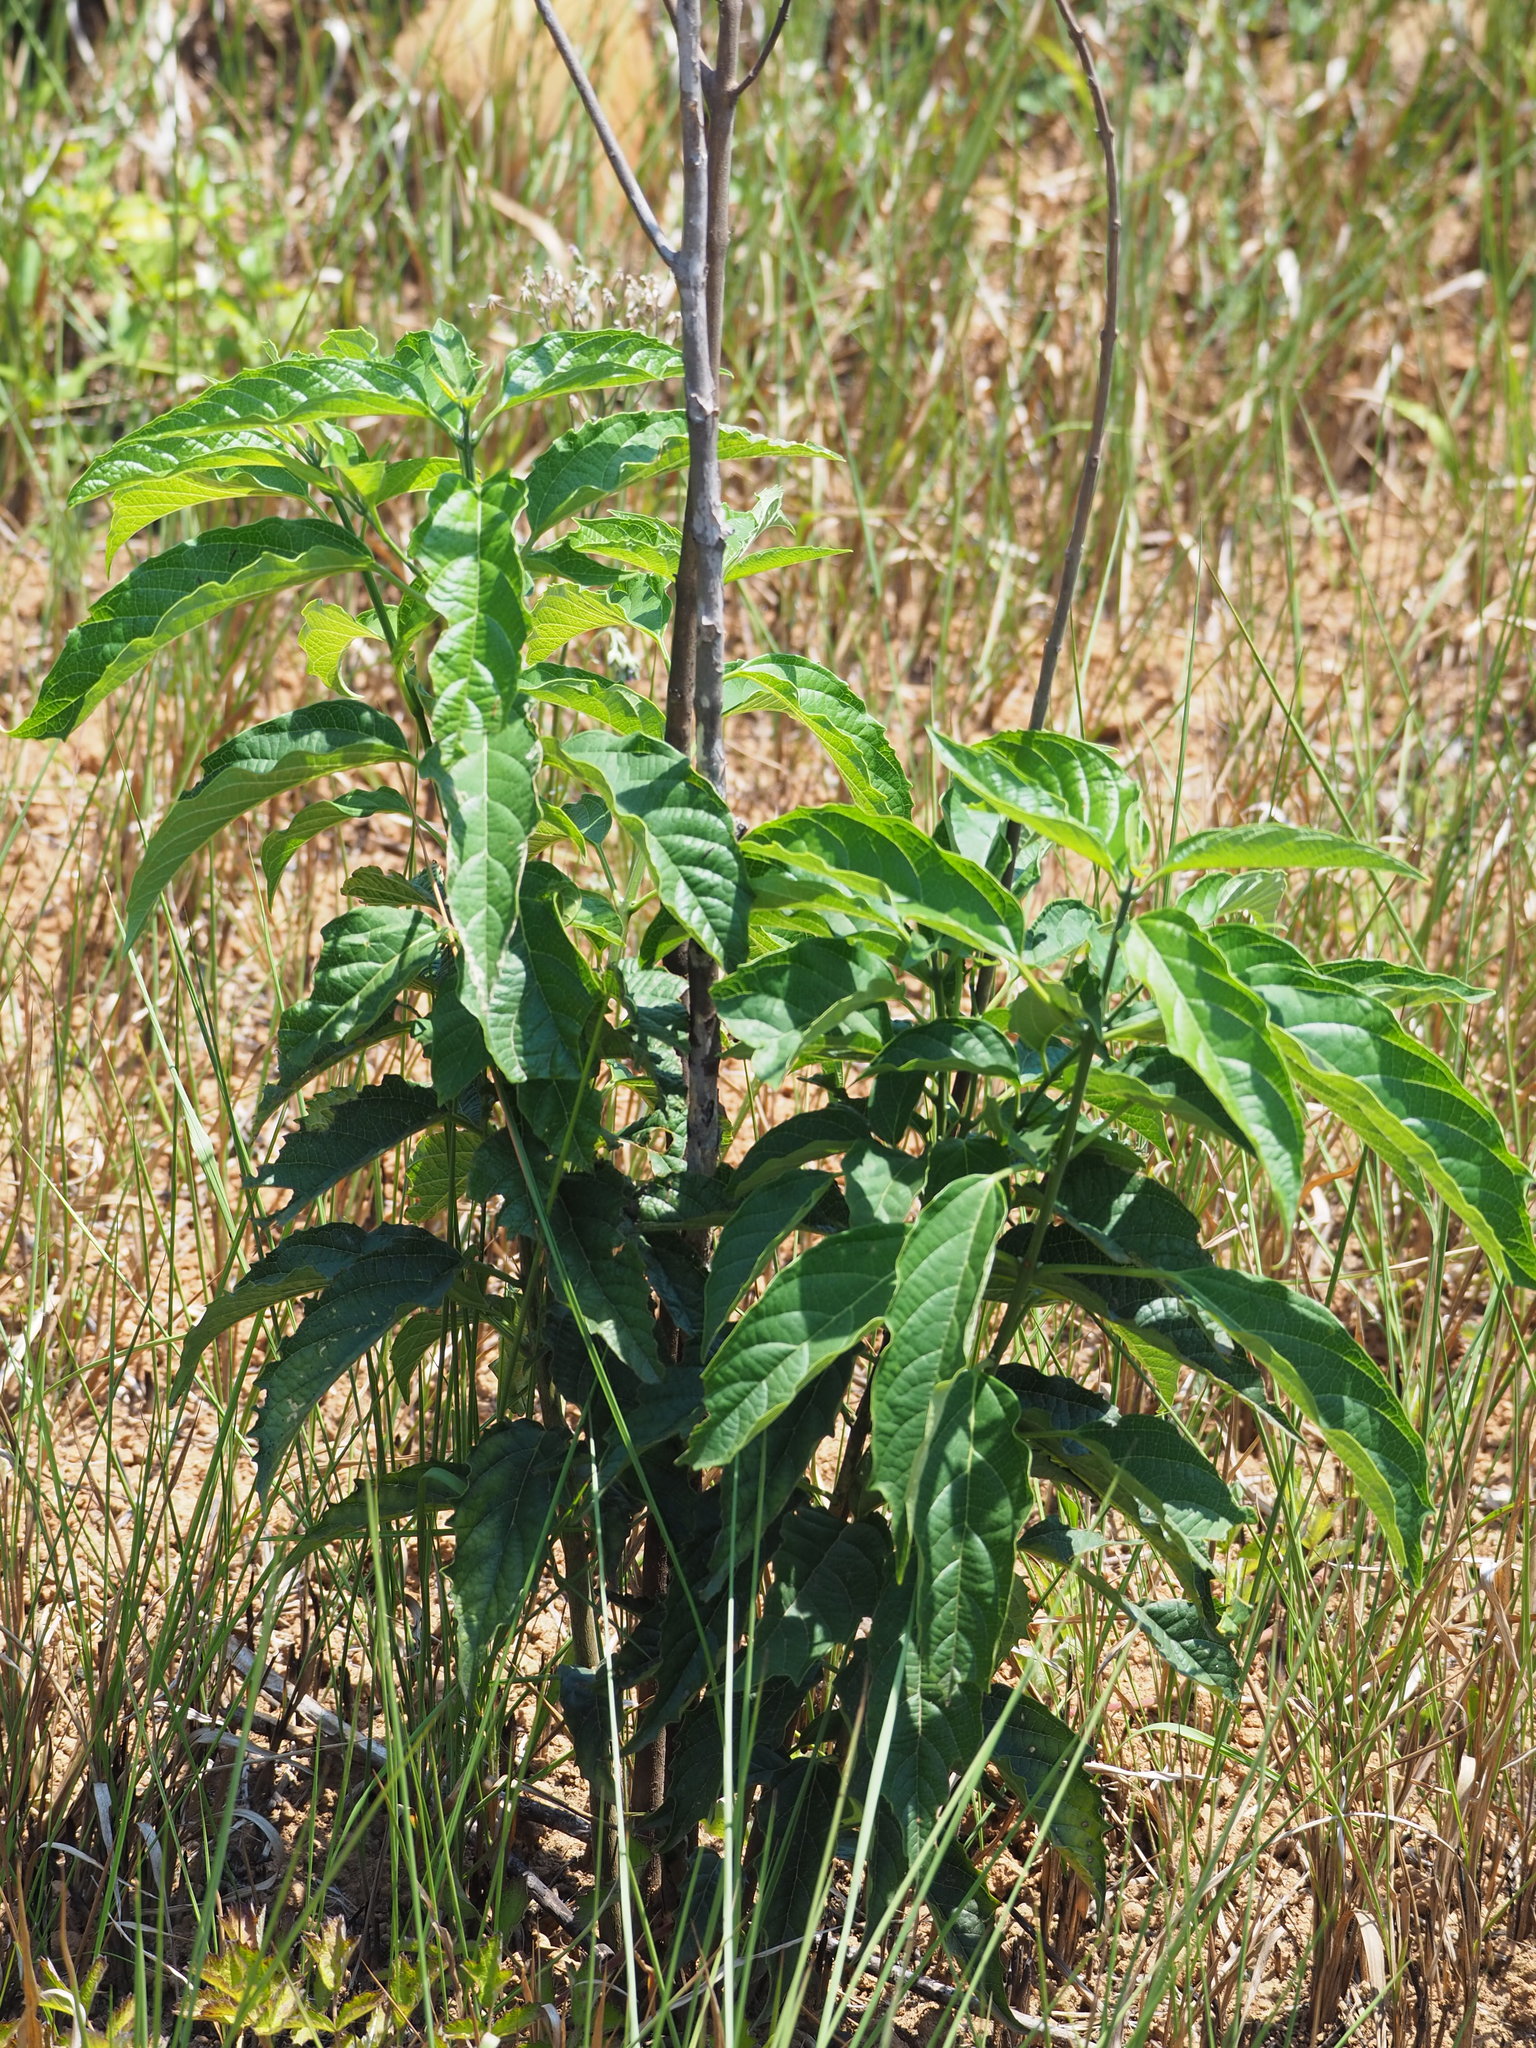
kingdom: Plantae
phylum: Tracheophyta
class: Magnoliopsida
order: Lamiales
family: Lamiaceae
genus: Clerodendrum
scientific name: Clerodendrum cyrtophyllum
